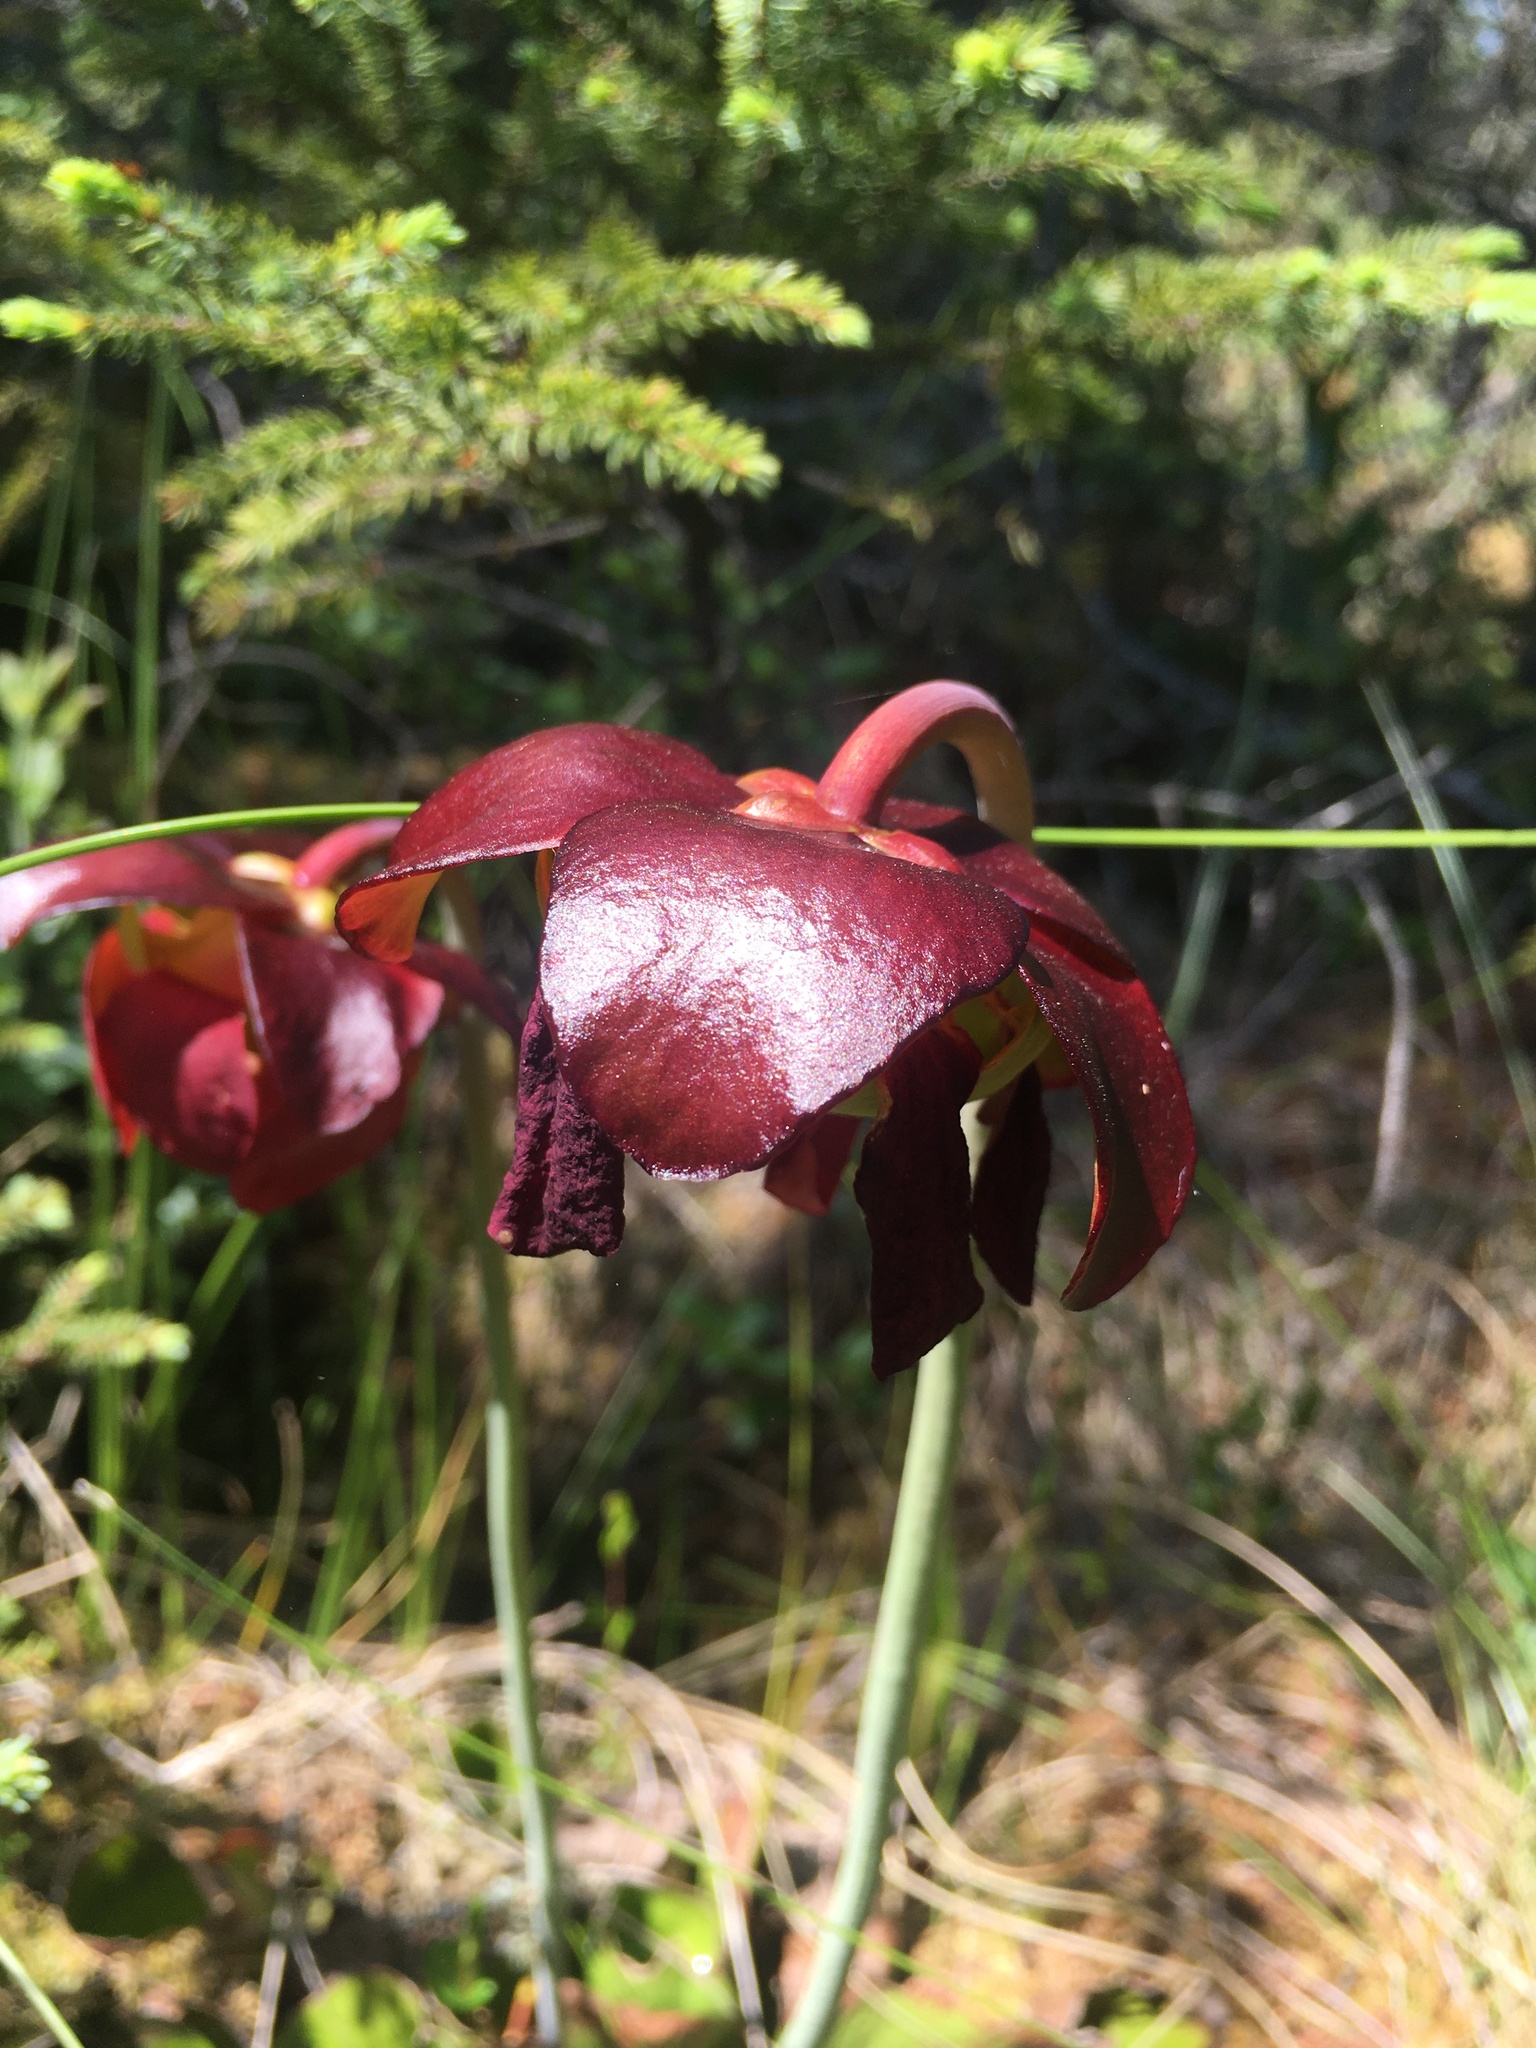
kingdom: Plantae
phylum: Tracheophyta
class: Magnoliopsida
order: Ericales
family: Sarraceniaceae
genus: Sarracenia
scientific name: Sarracenia purpurea
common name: Pitcherplant
